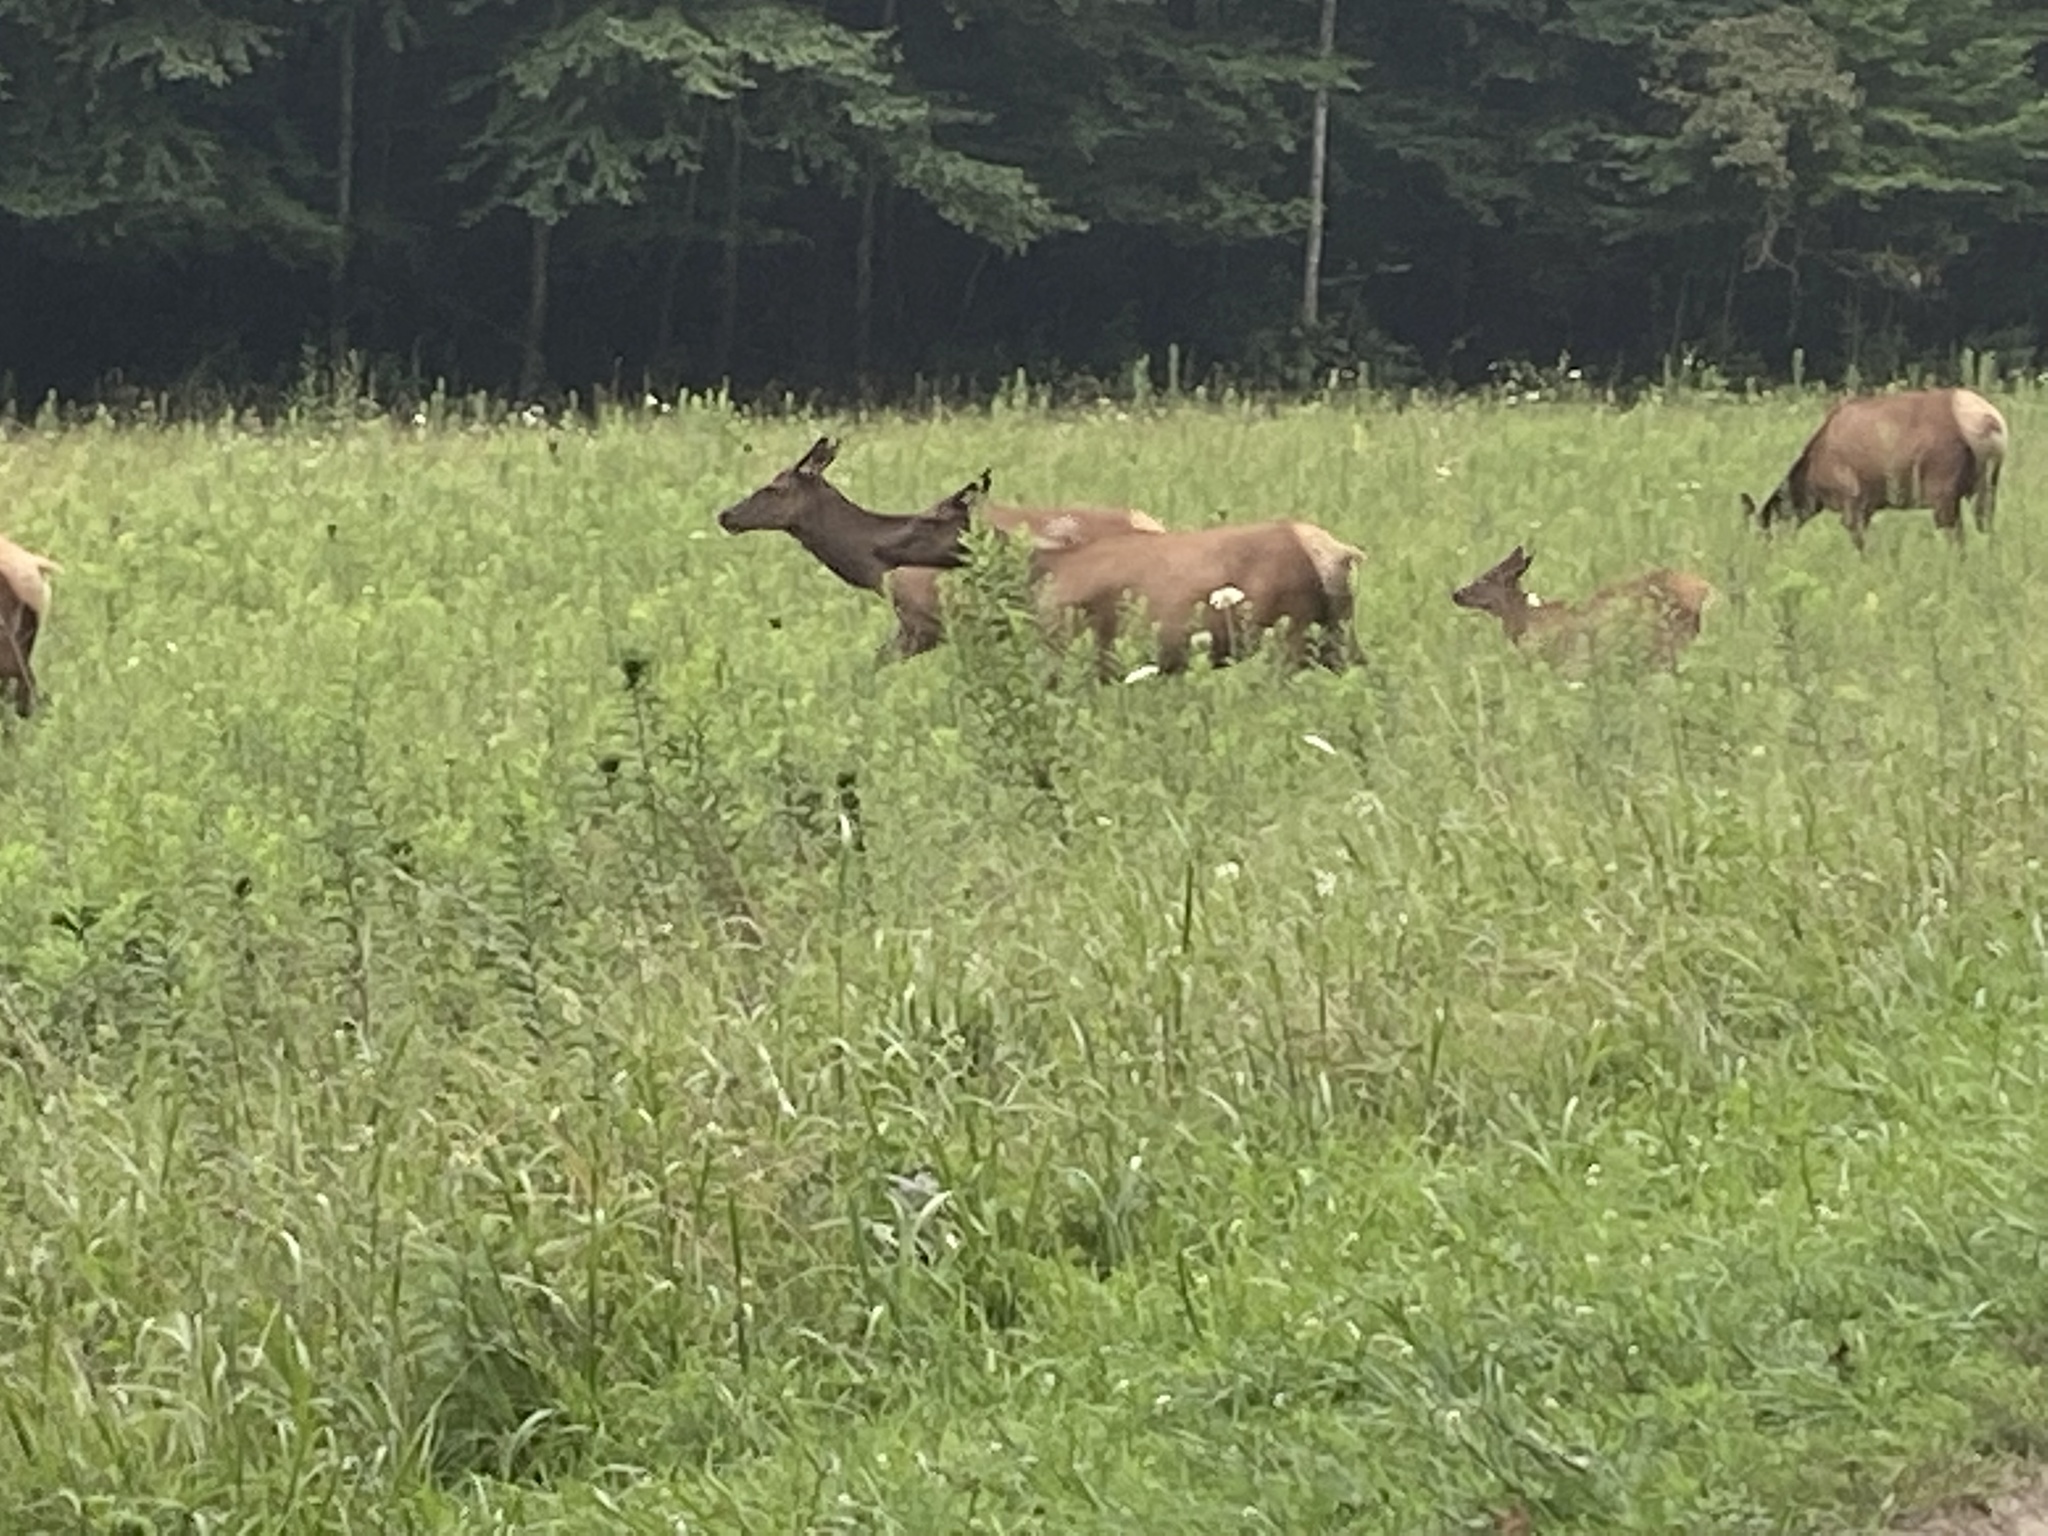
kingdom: Animalia
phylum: Chordata
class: Mammalia
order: Artiodactyla
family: Cervidae
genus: Cervus
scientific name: Cervus elaphus
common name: Red deer
